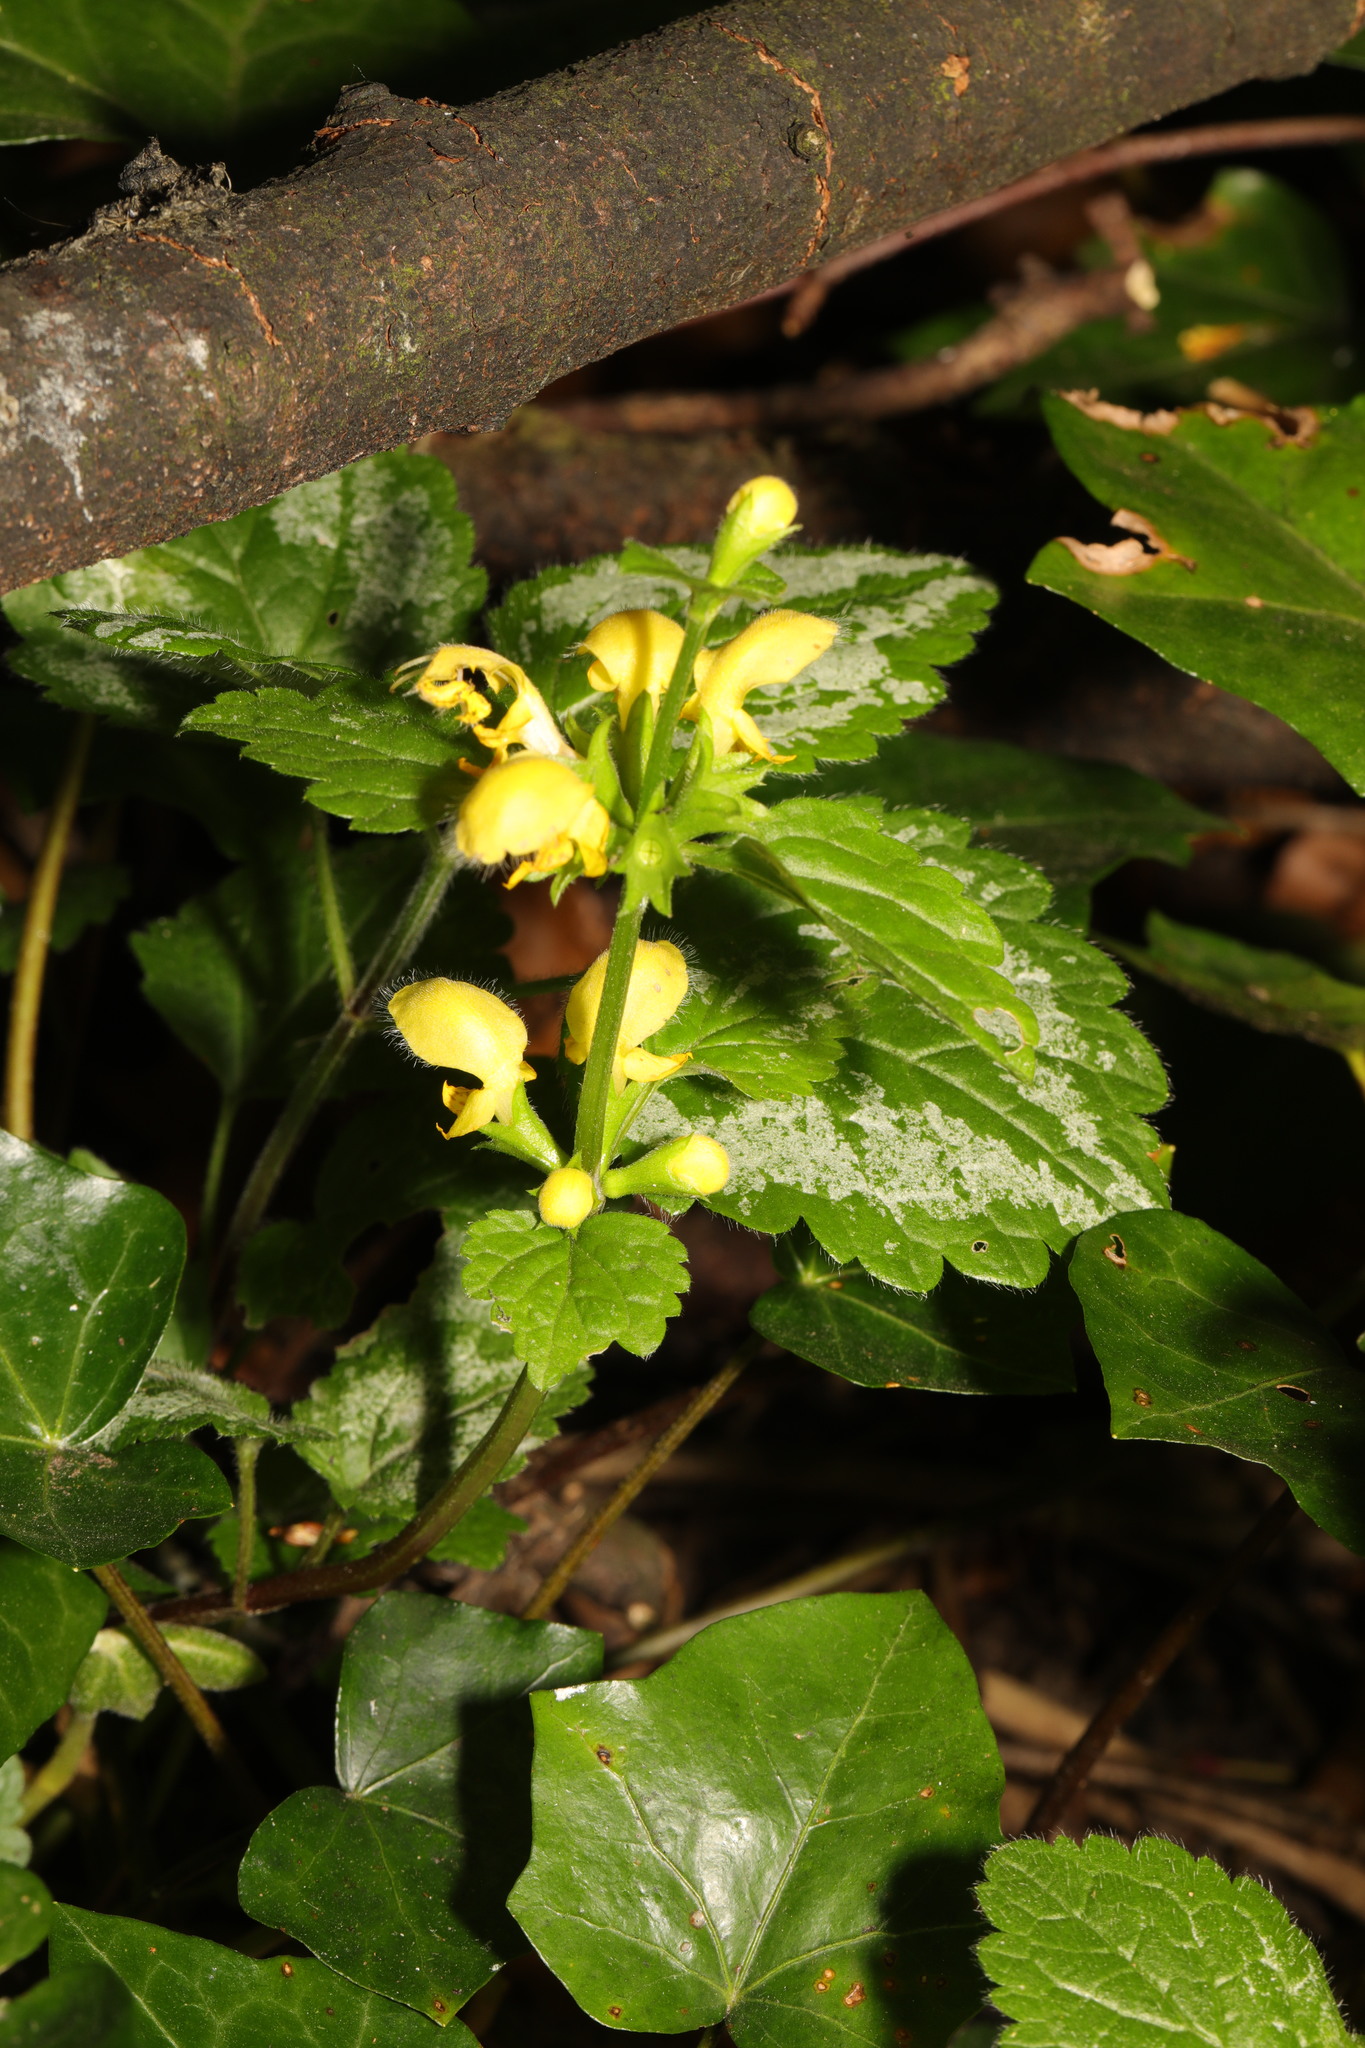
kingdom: Plantae
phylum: Tracheophyta
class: Magnoliopsida
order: Lamiales
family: Lamiaceae
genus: Lamium
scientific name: Lamium galeobdolon
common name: Yellow archangel
